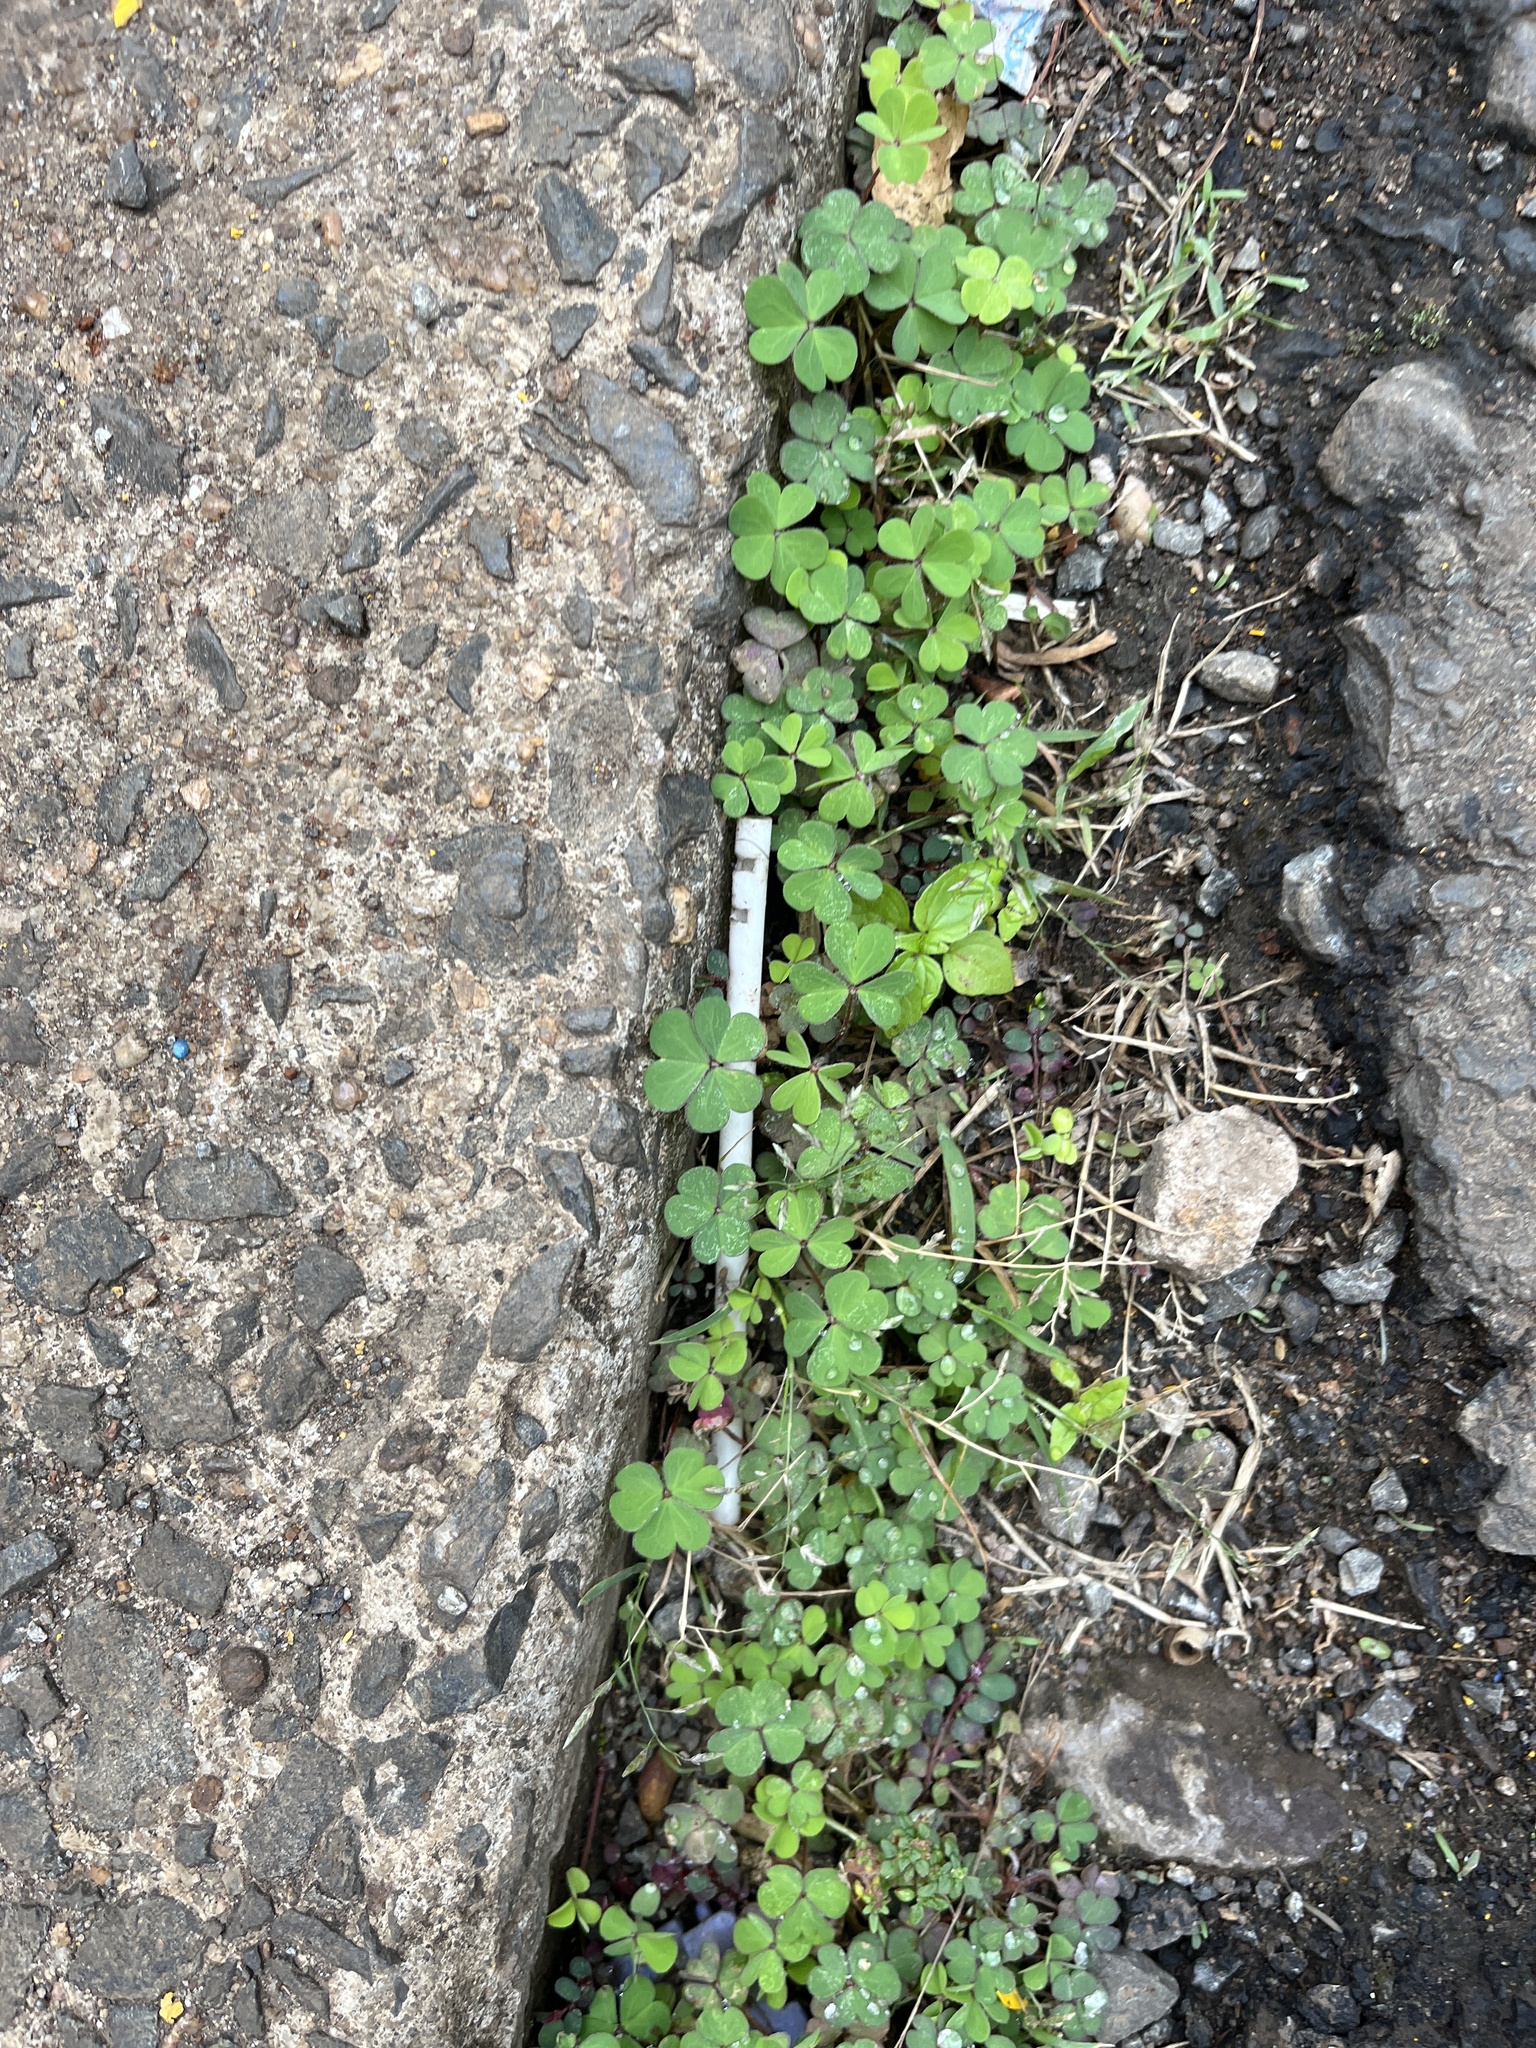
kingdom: Plantae
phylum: Tracheophyta
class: Magnoliopsida
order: Oxalidales
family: Oxalidaceae
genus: Oxalis
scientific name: Oxalis corniculata
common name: Procumbent yellow-sorrel
